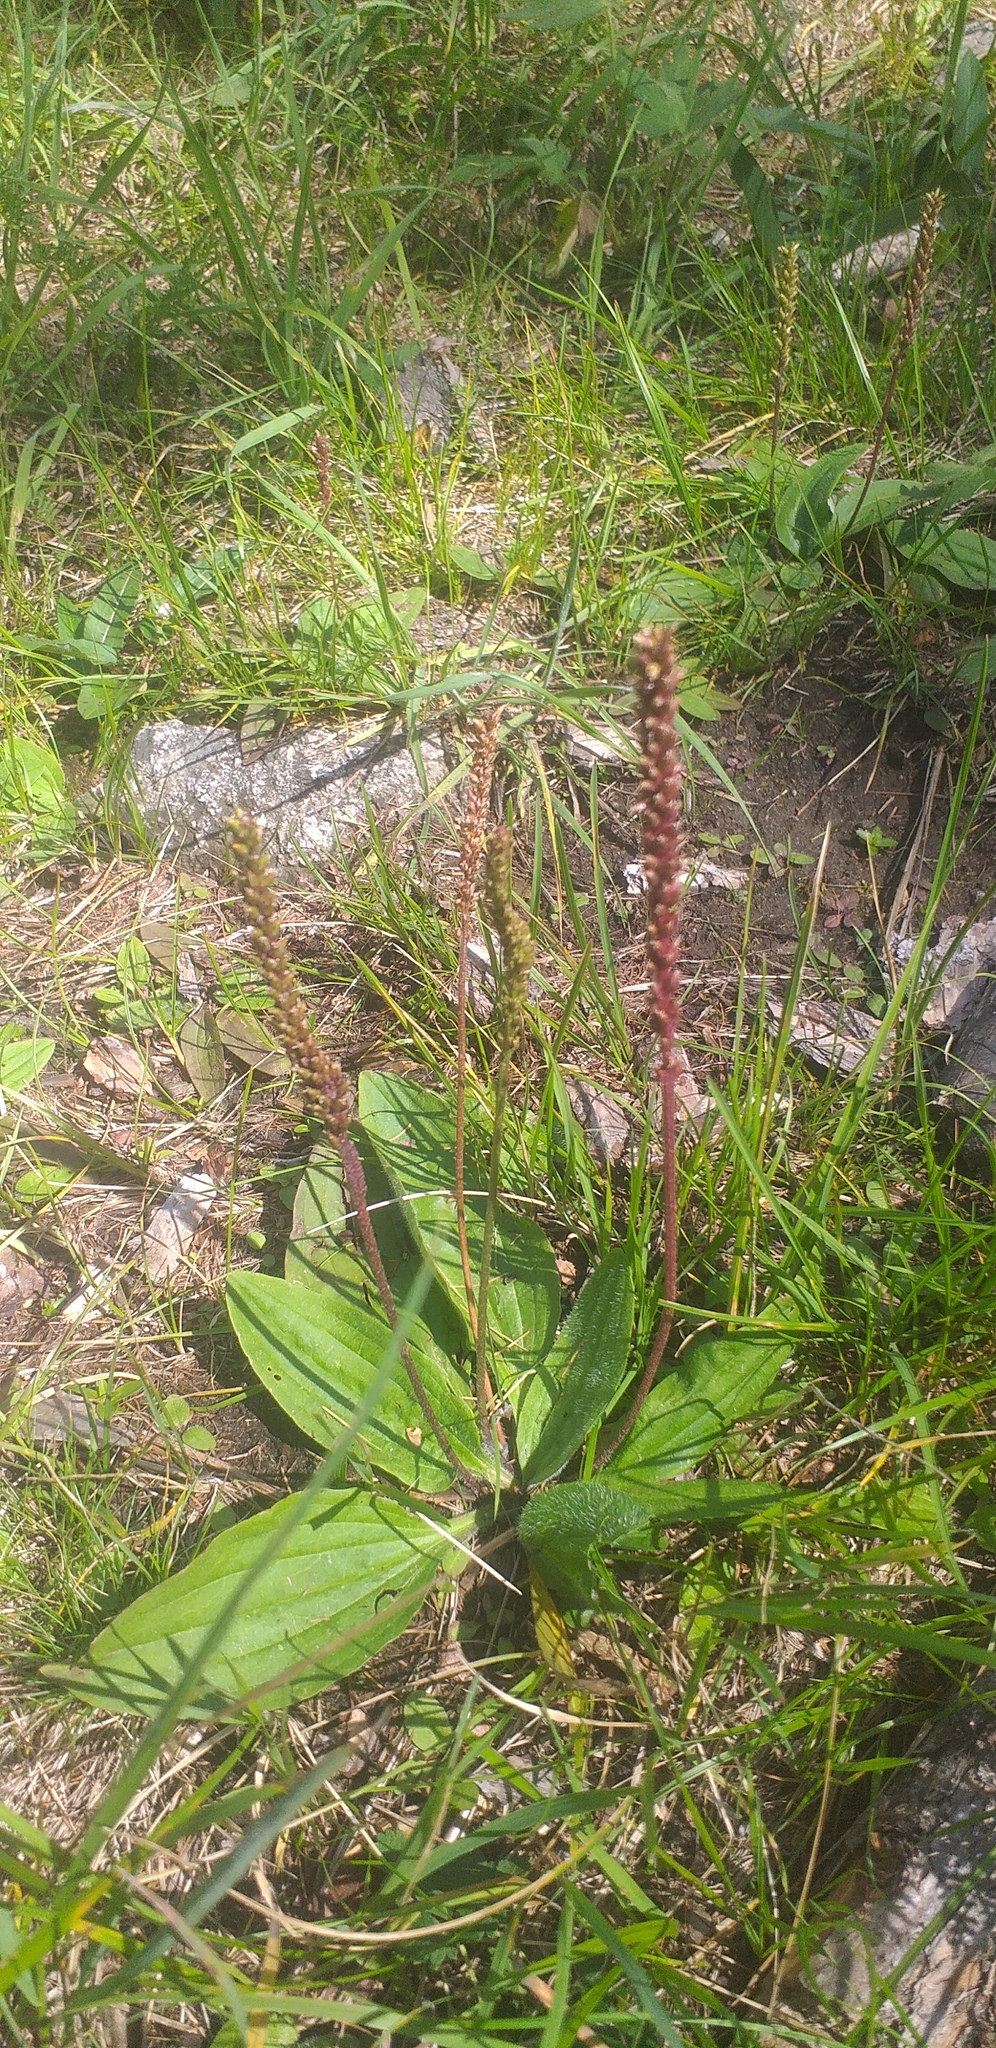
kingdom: Plantae
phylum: Tracheophyta
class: Magnoliopsida
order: Lamiales
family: Plantaginaceae
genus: Plantago
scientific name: Plantago media
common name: Hoary plantain
